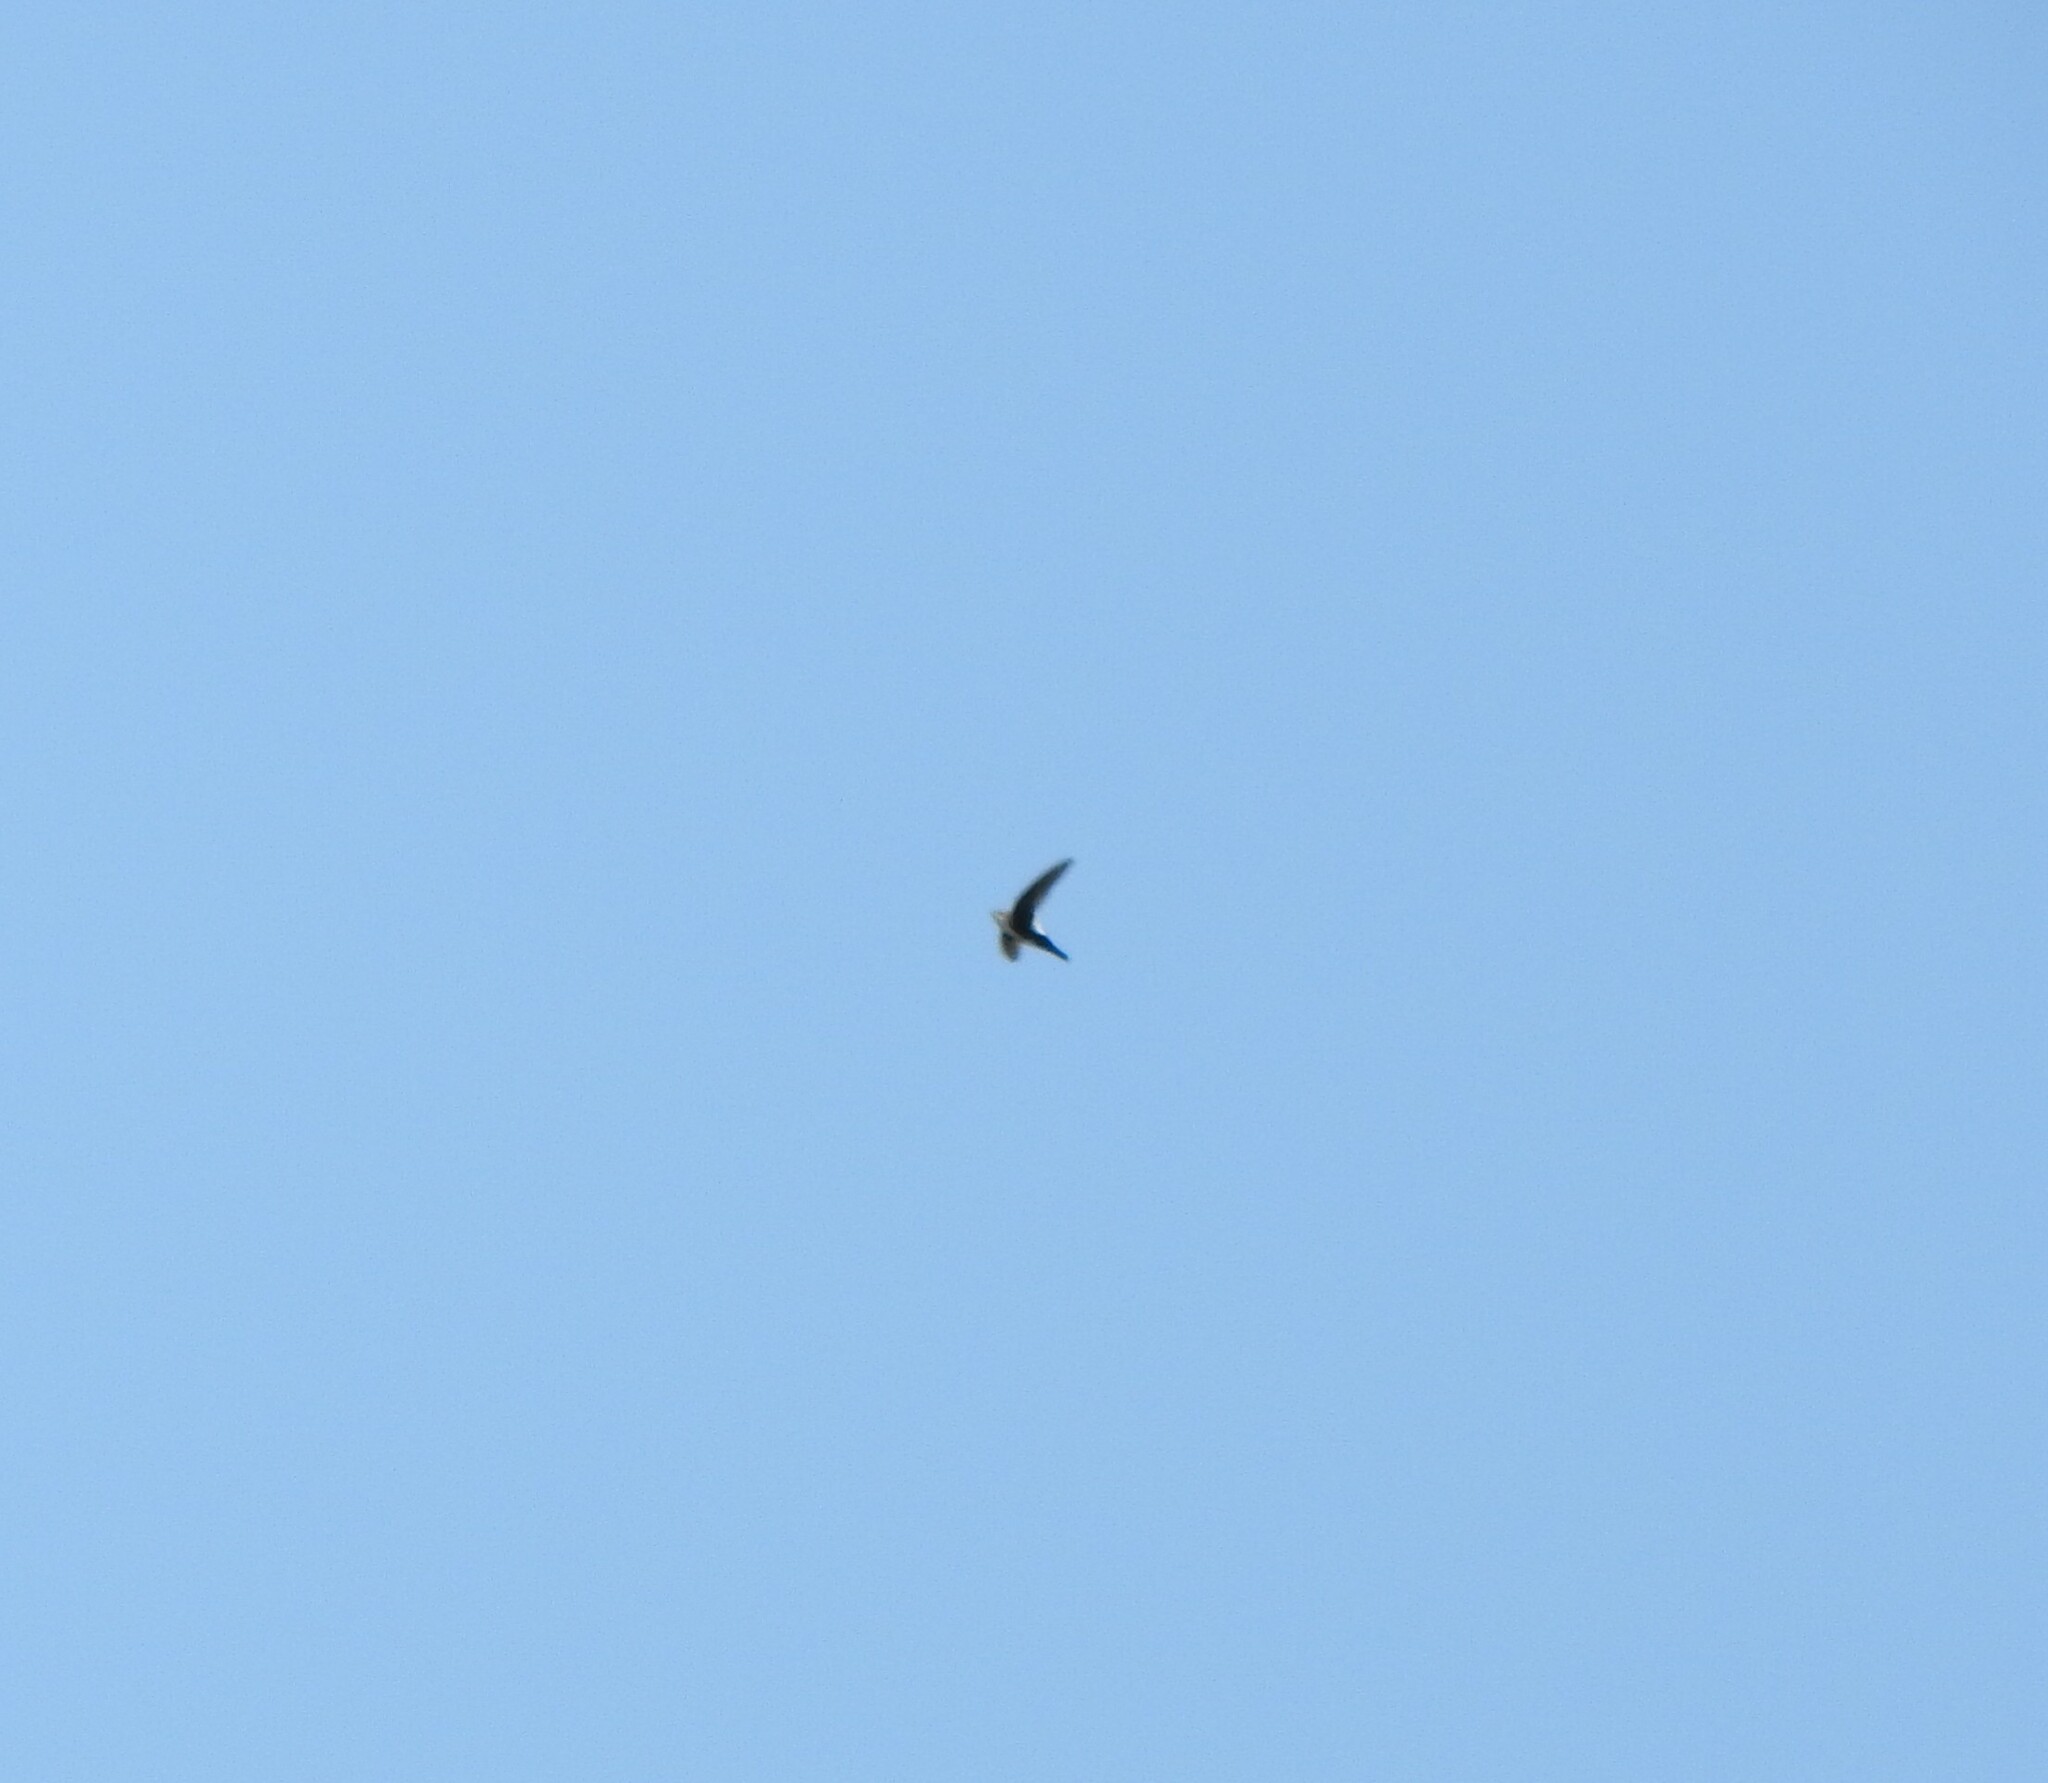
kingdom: Animalia
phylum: Chordata
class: Aves
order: Apodiformes
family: Apodidae
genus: Aeronautes
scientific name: Aeronautes saxatalis
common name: White-throated swift
